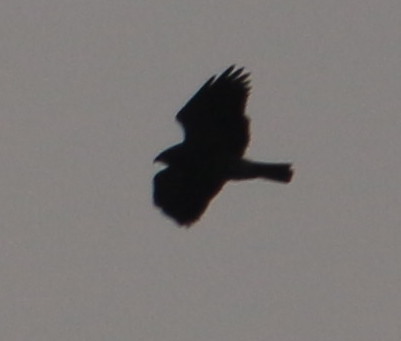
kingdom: Animalia
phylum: Chordata
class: Aves
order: Accipitriformes
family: Accipitridae
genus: Buteo
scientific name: Buteo swainsoni
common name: Swainson's hawk
